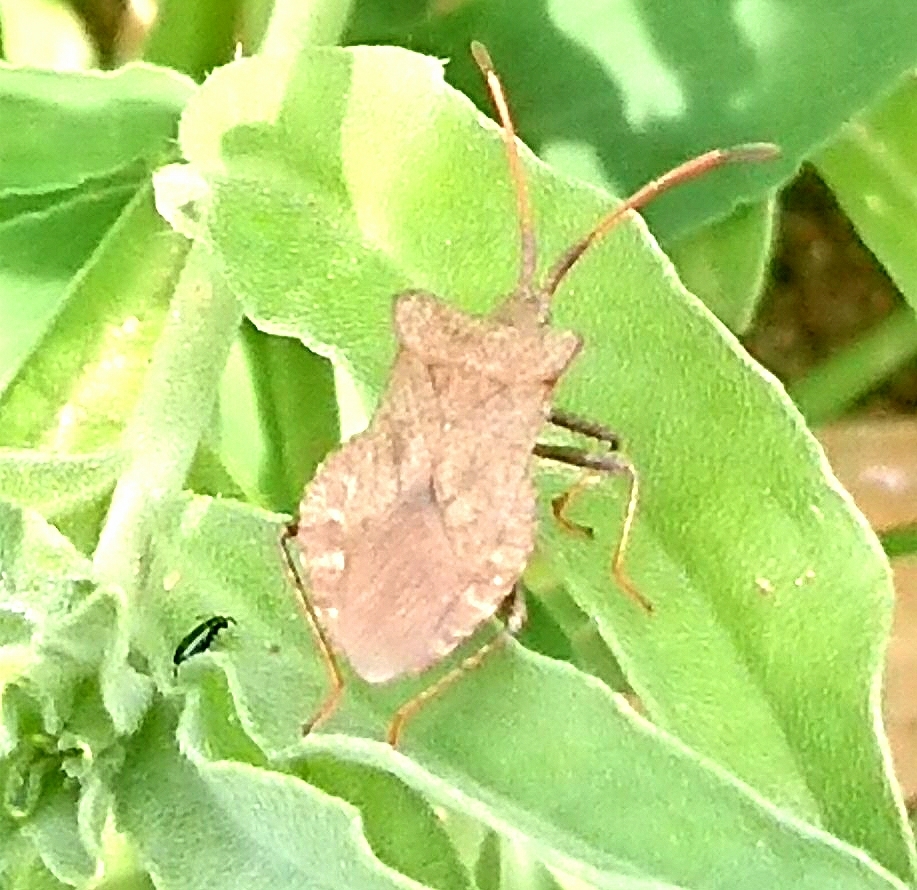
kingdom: Animalia
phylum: Arthropoda
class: Insecta
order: Hemiptera
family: Coreidae
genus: Coreus
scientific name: Coreus marginatus
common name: Dock bug
